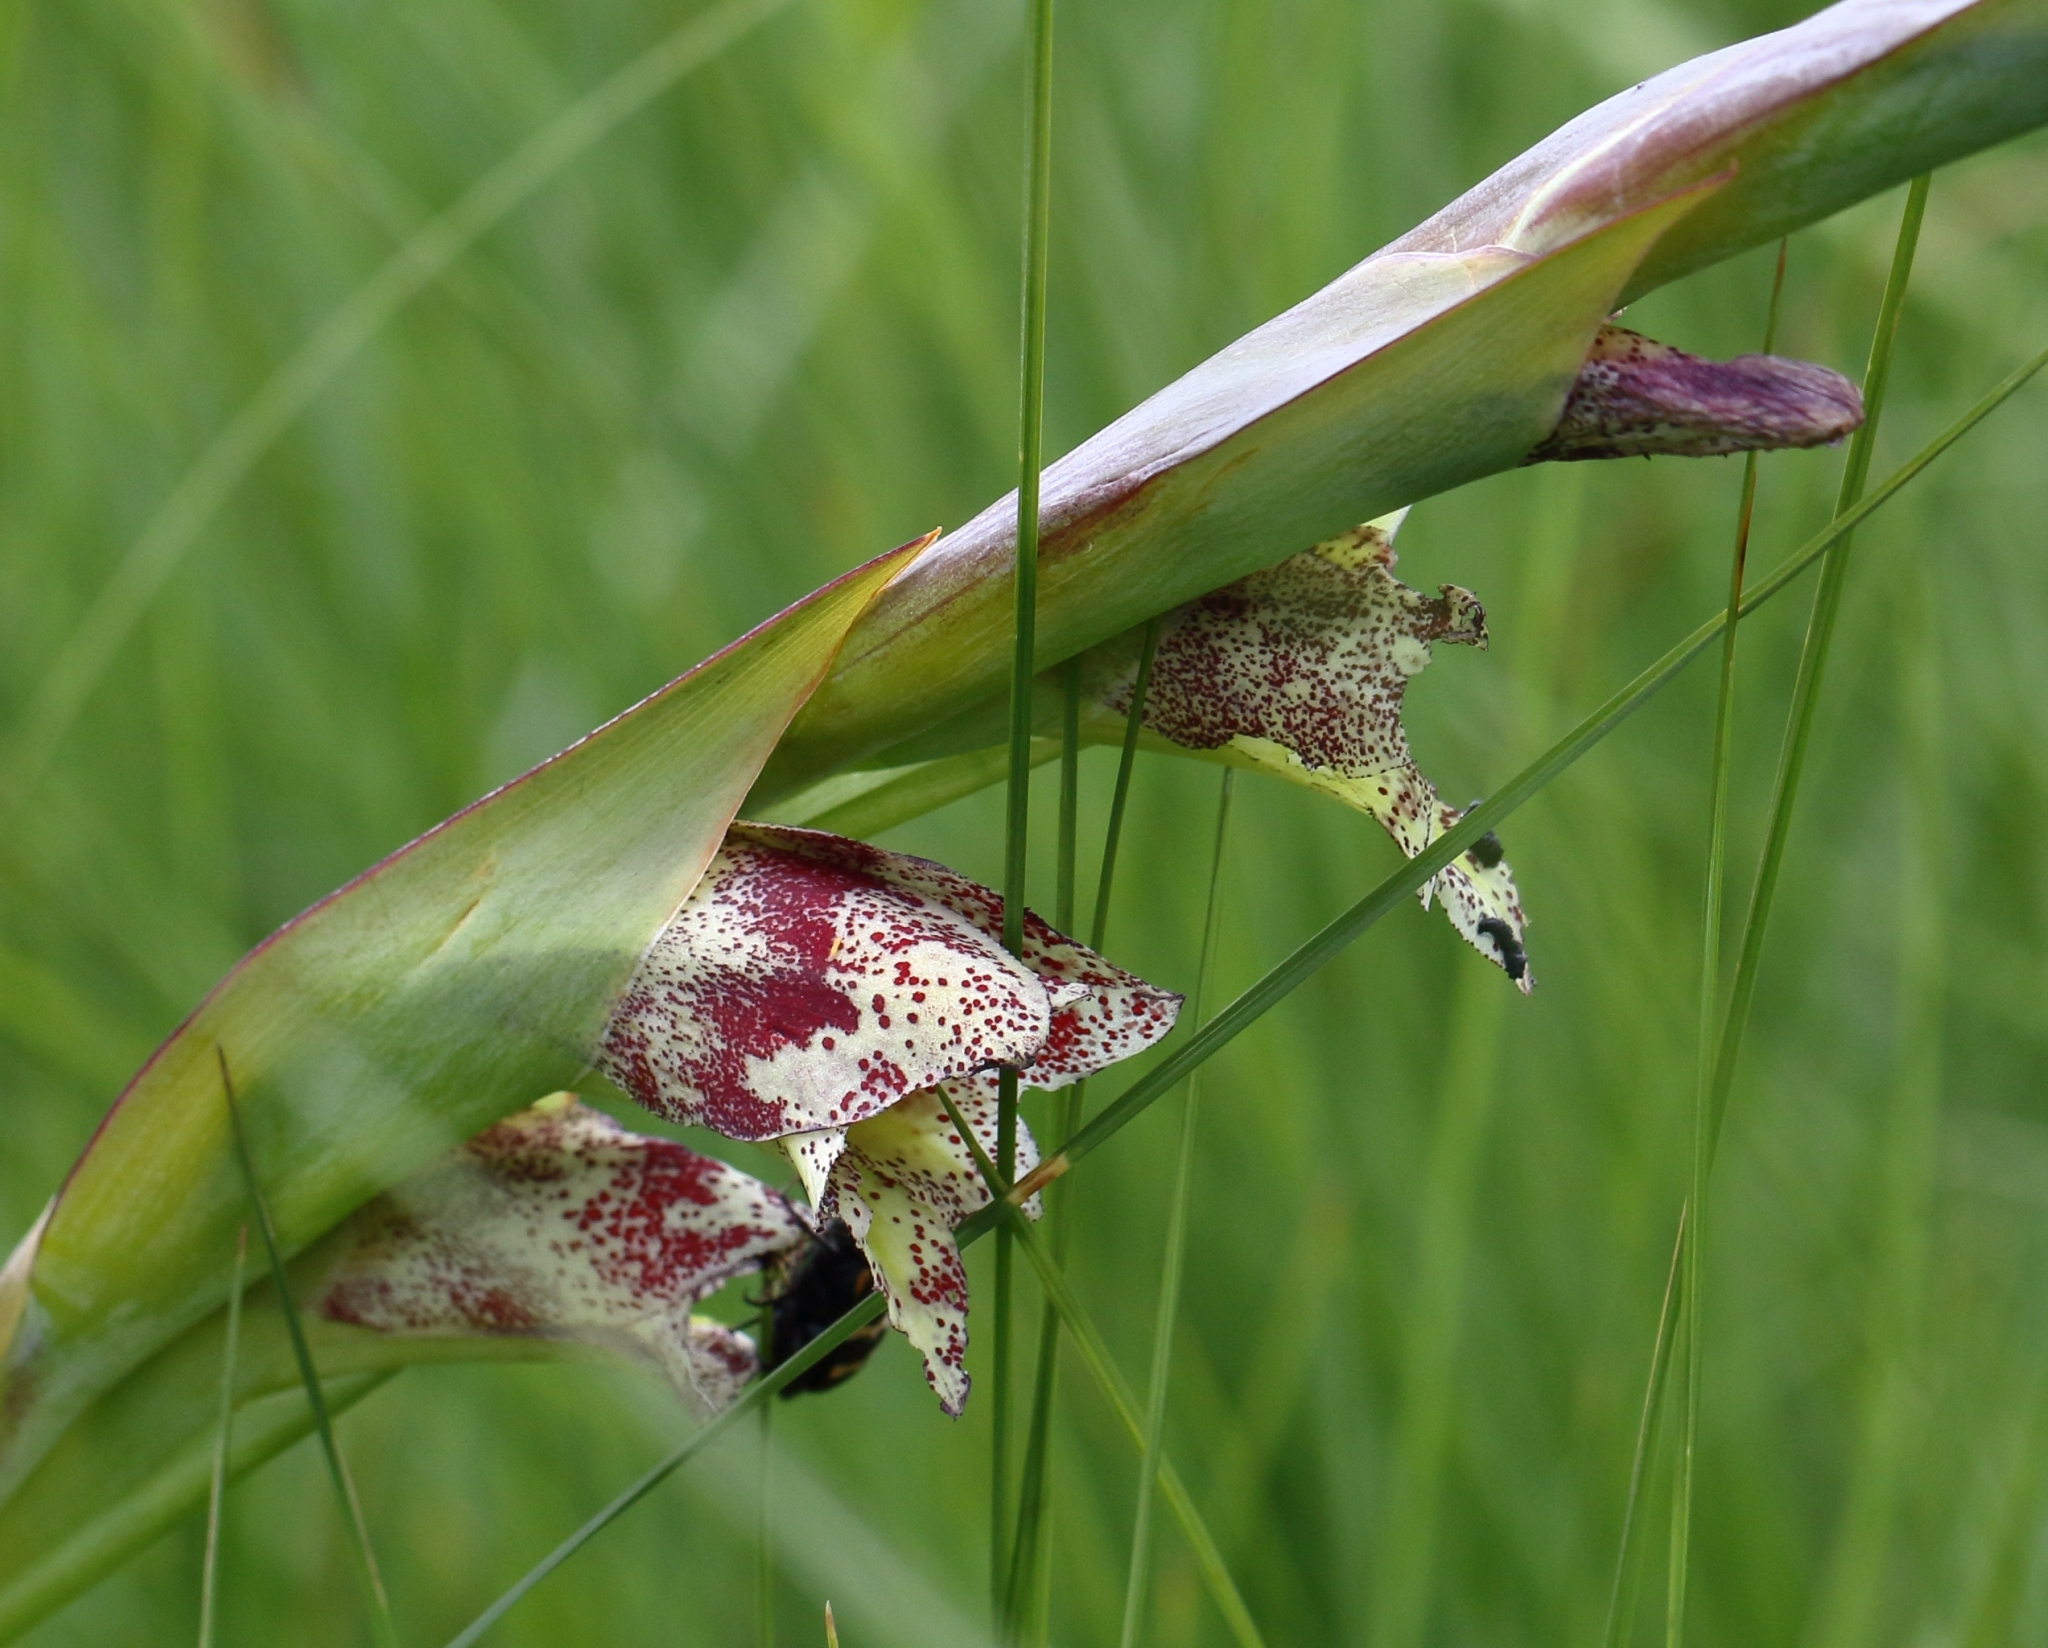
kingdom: Animalia
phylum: Arthropoda
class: Insecta
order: Coleoptera
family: Meloidae
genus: Hycleus
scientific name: Hycleus pilosus
